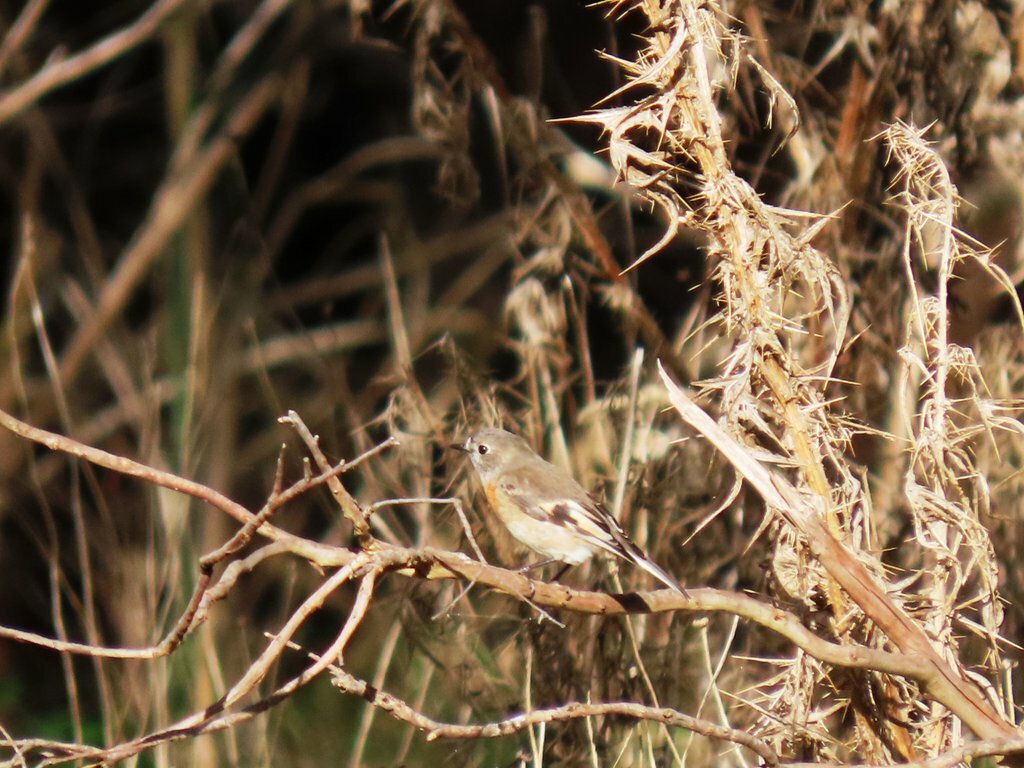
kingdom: Animalia
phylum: Chordata
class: Aves
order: Passeriformes
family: Petroicidae
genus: Petroica
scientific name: Petroica boodang
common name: Scarlet robin
